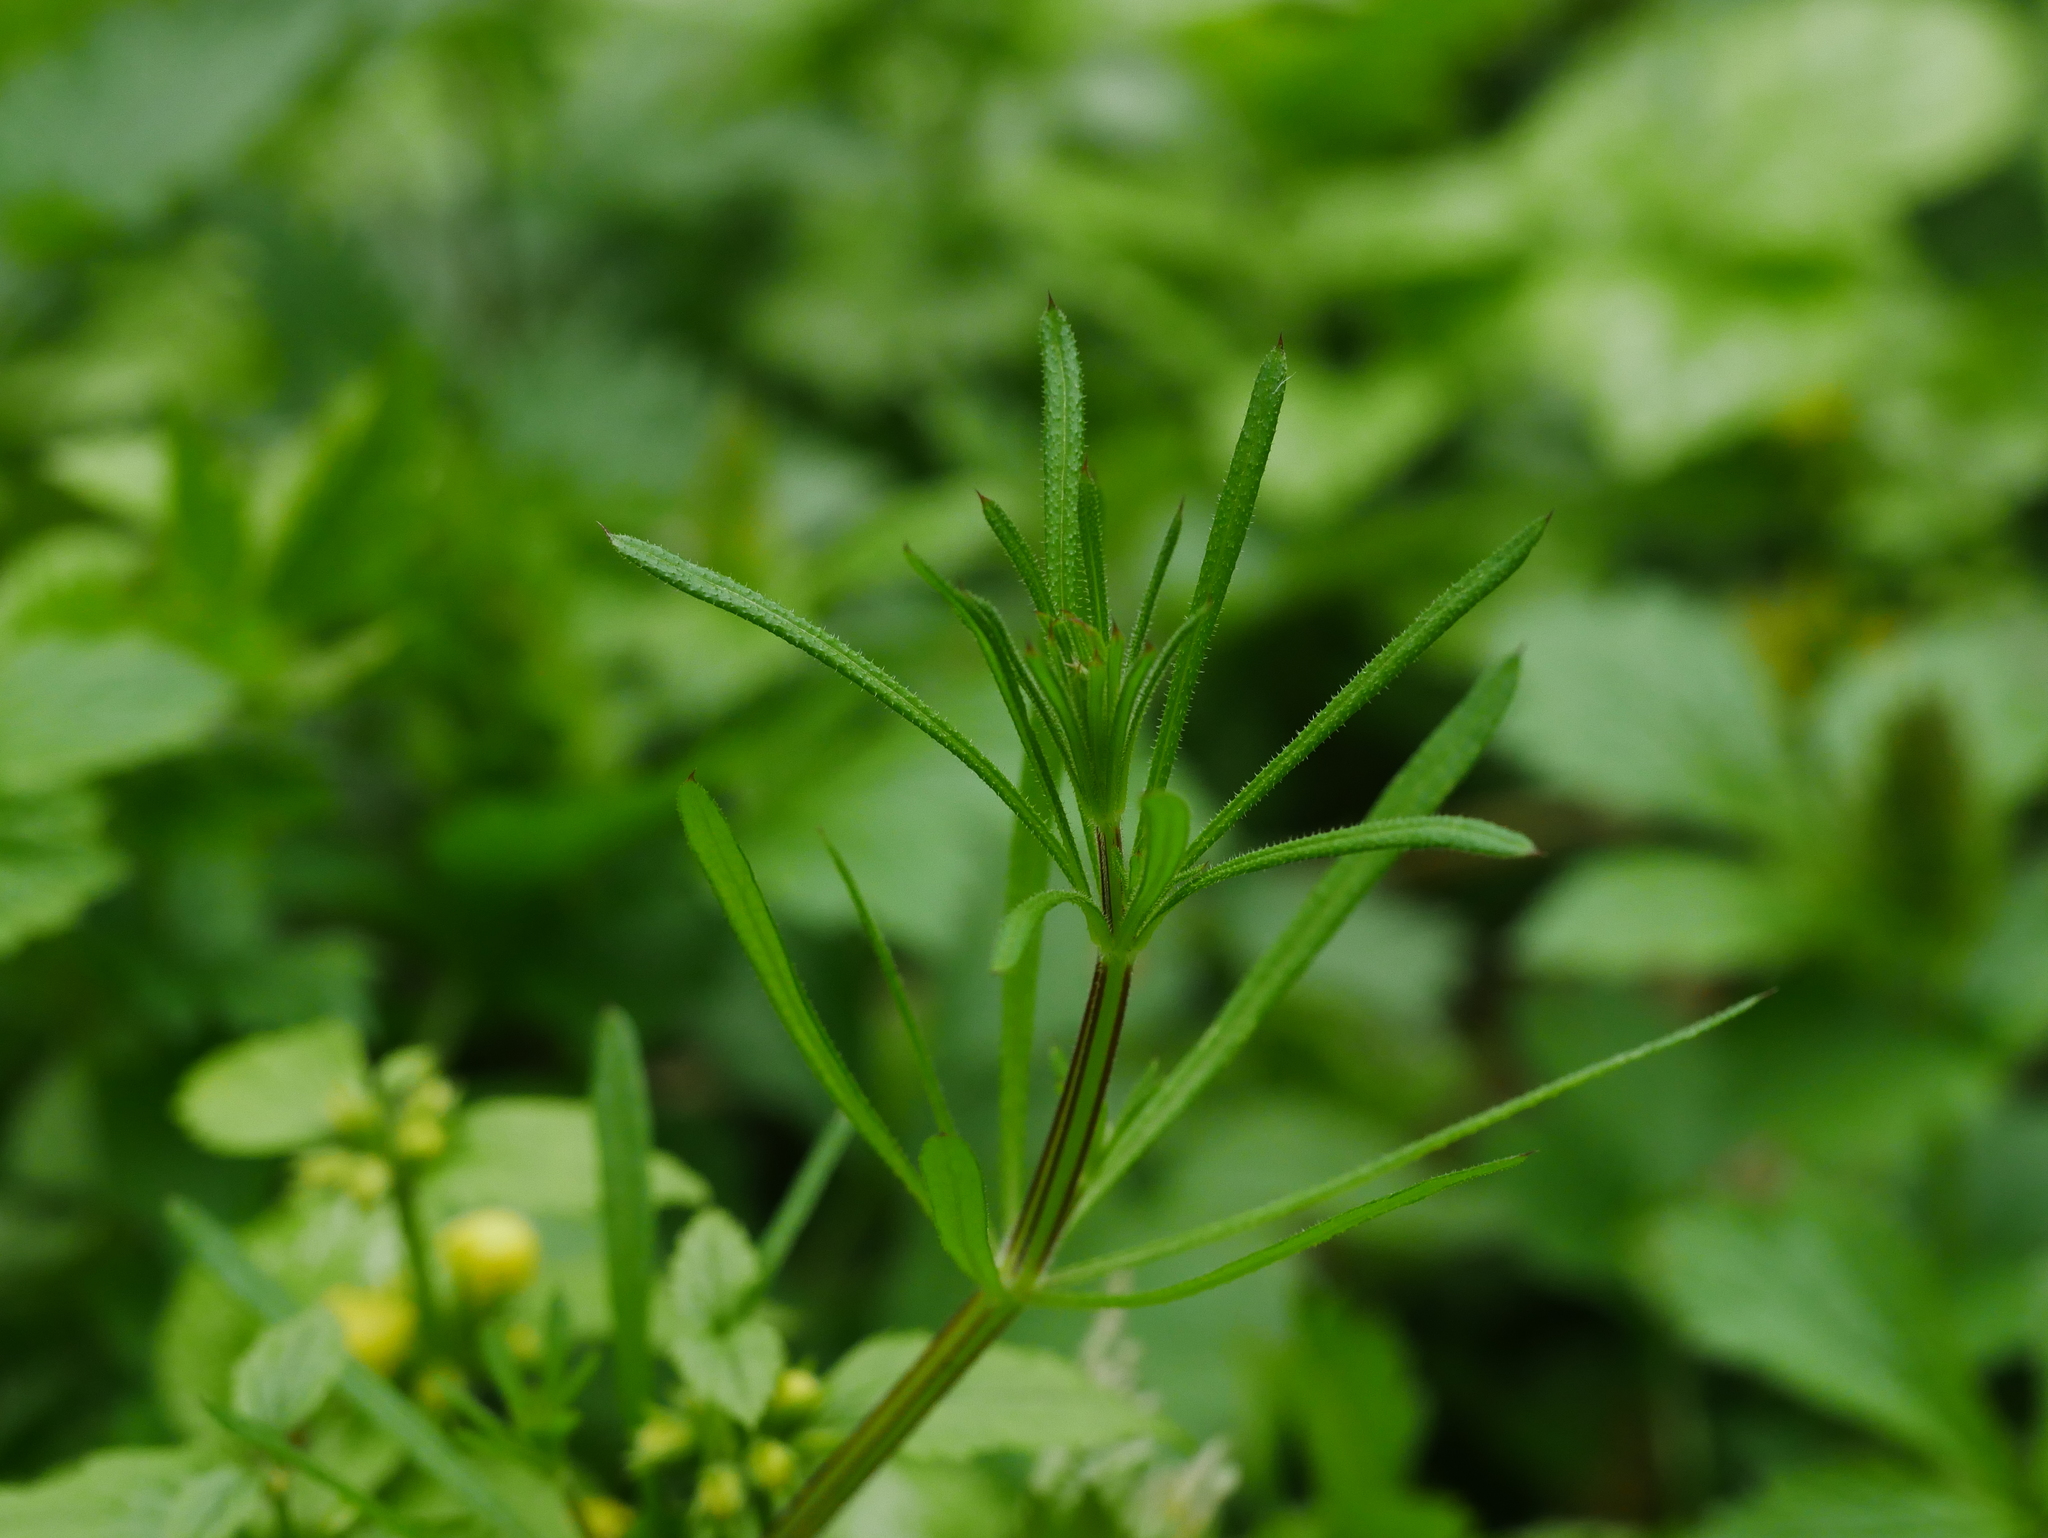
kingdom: Plantae
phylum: Tracheophyta
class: Magnoliopsida
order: Gentianales
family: Rubiaceae
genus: Galium
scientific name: Galium aparine
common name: Cleavers
